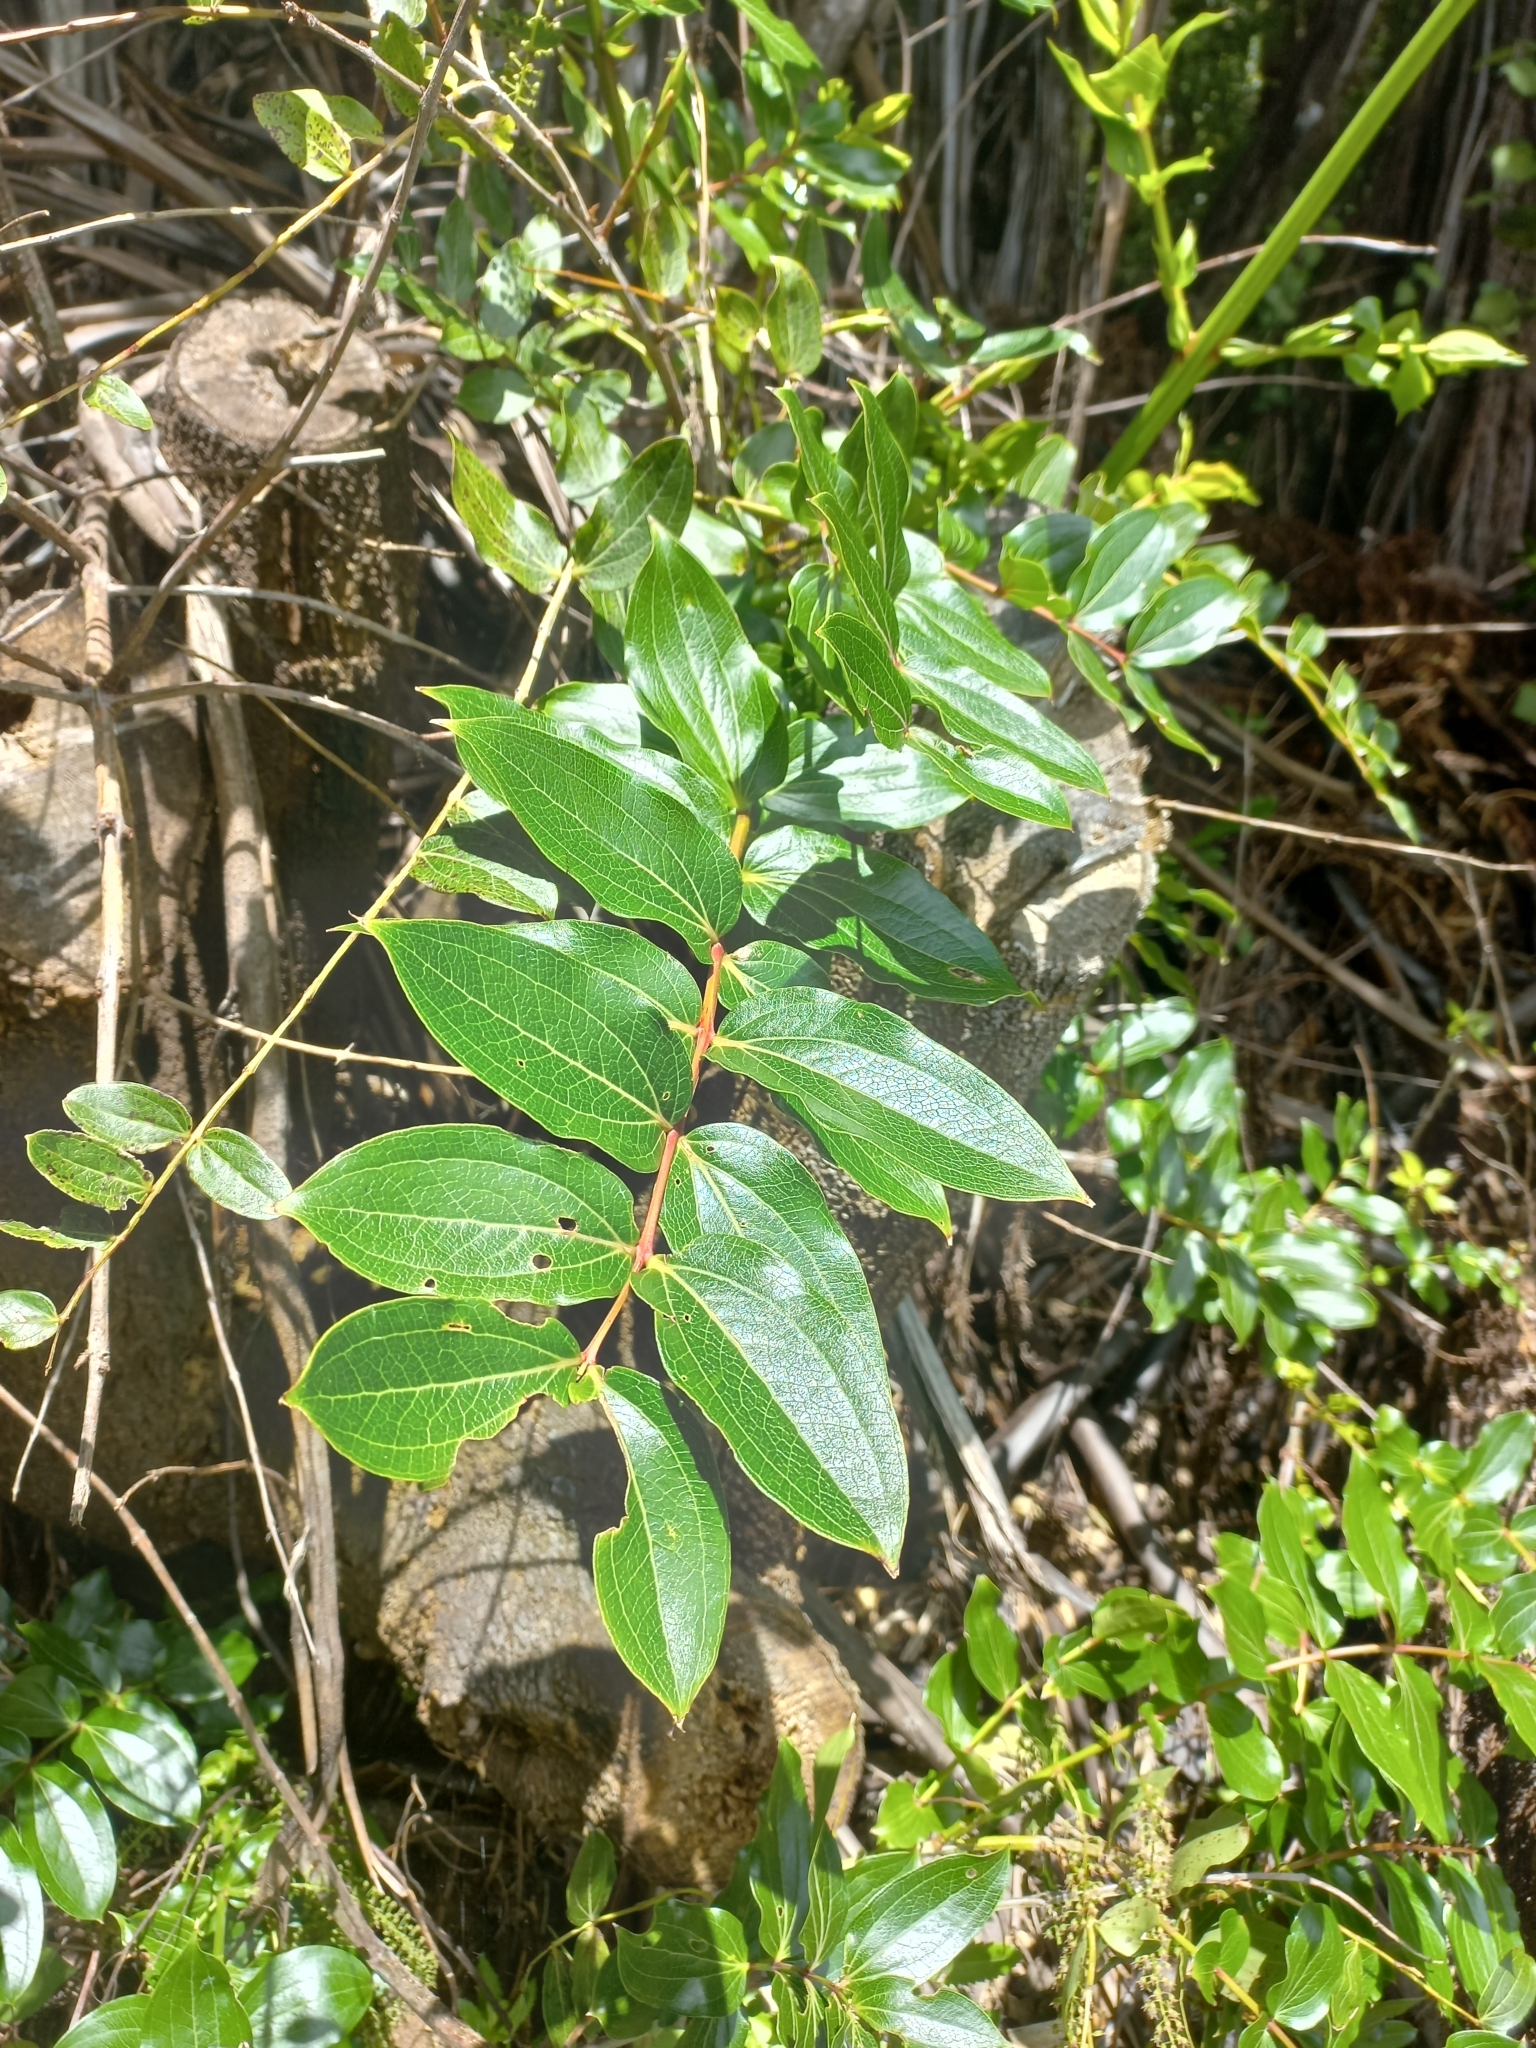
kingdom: Plantae
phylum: Tracheophyta
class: Magnoliopsida
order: Cucurbitales
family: Coriariaceae
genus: Coriaria
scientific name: Coriaria arborea
